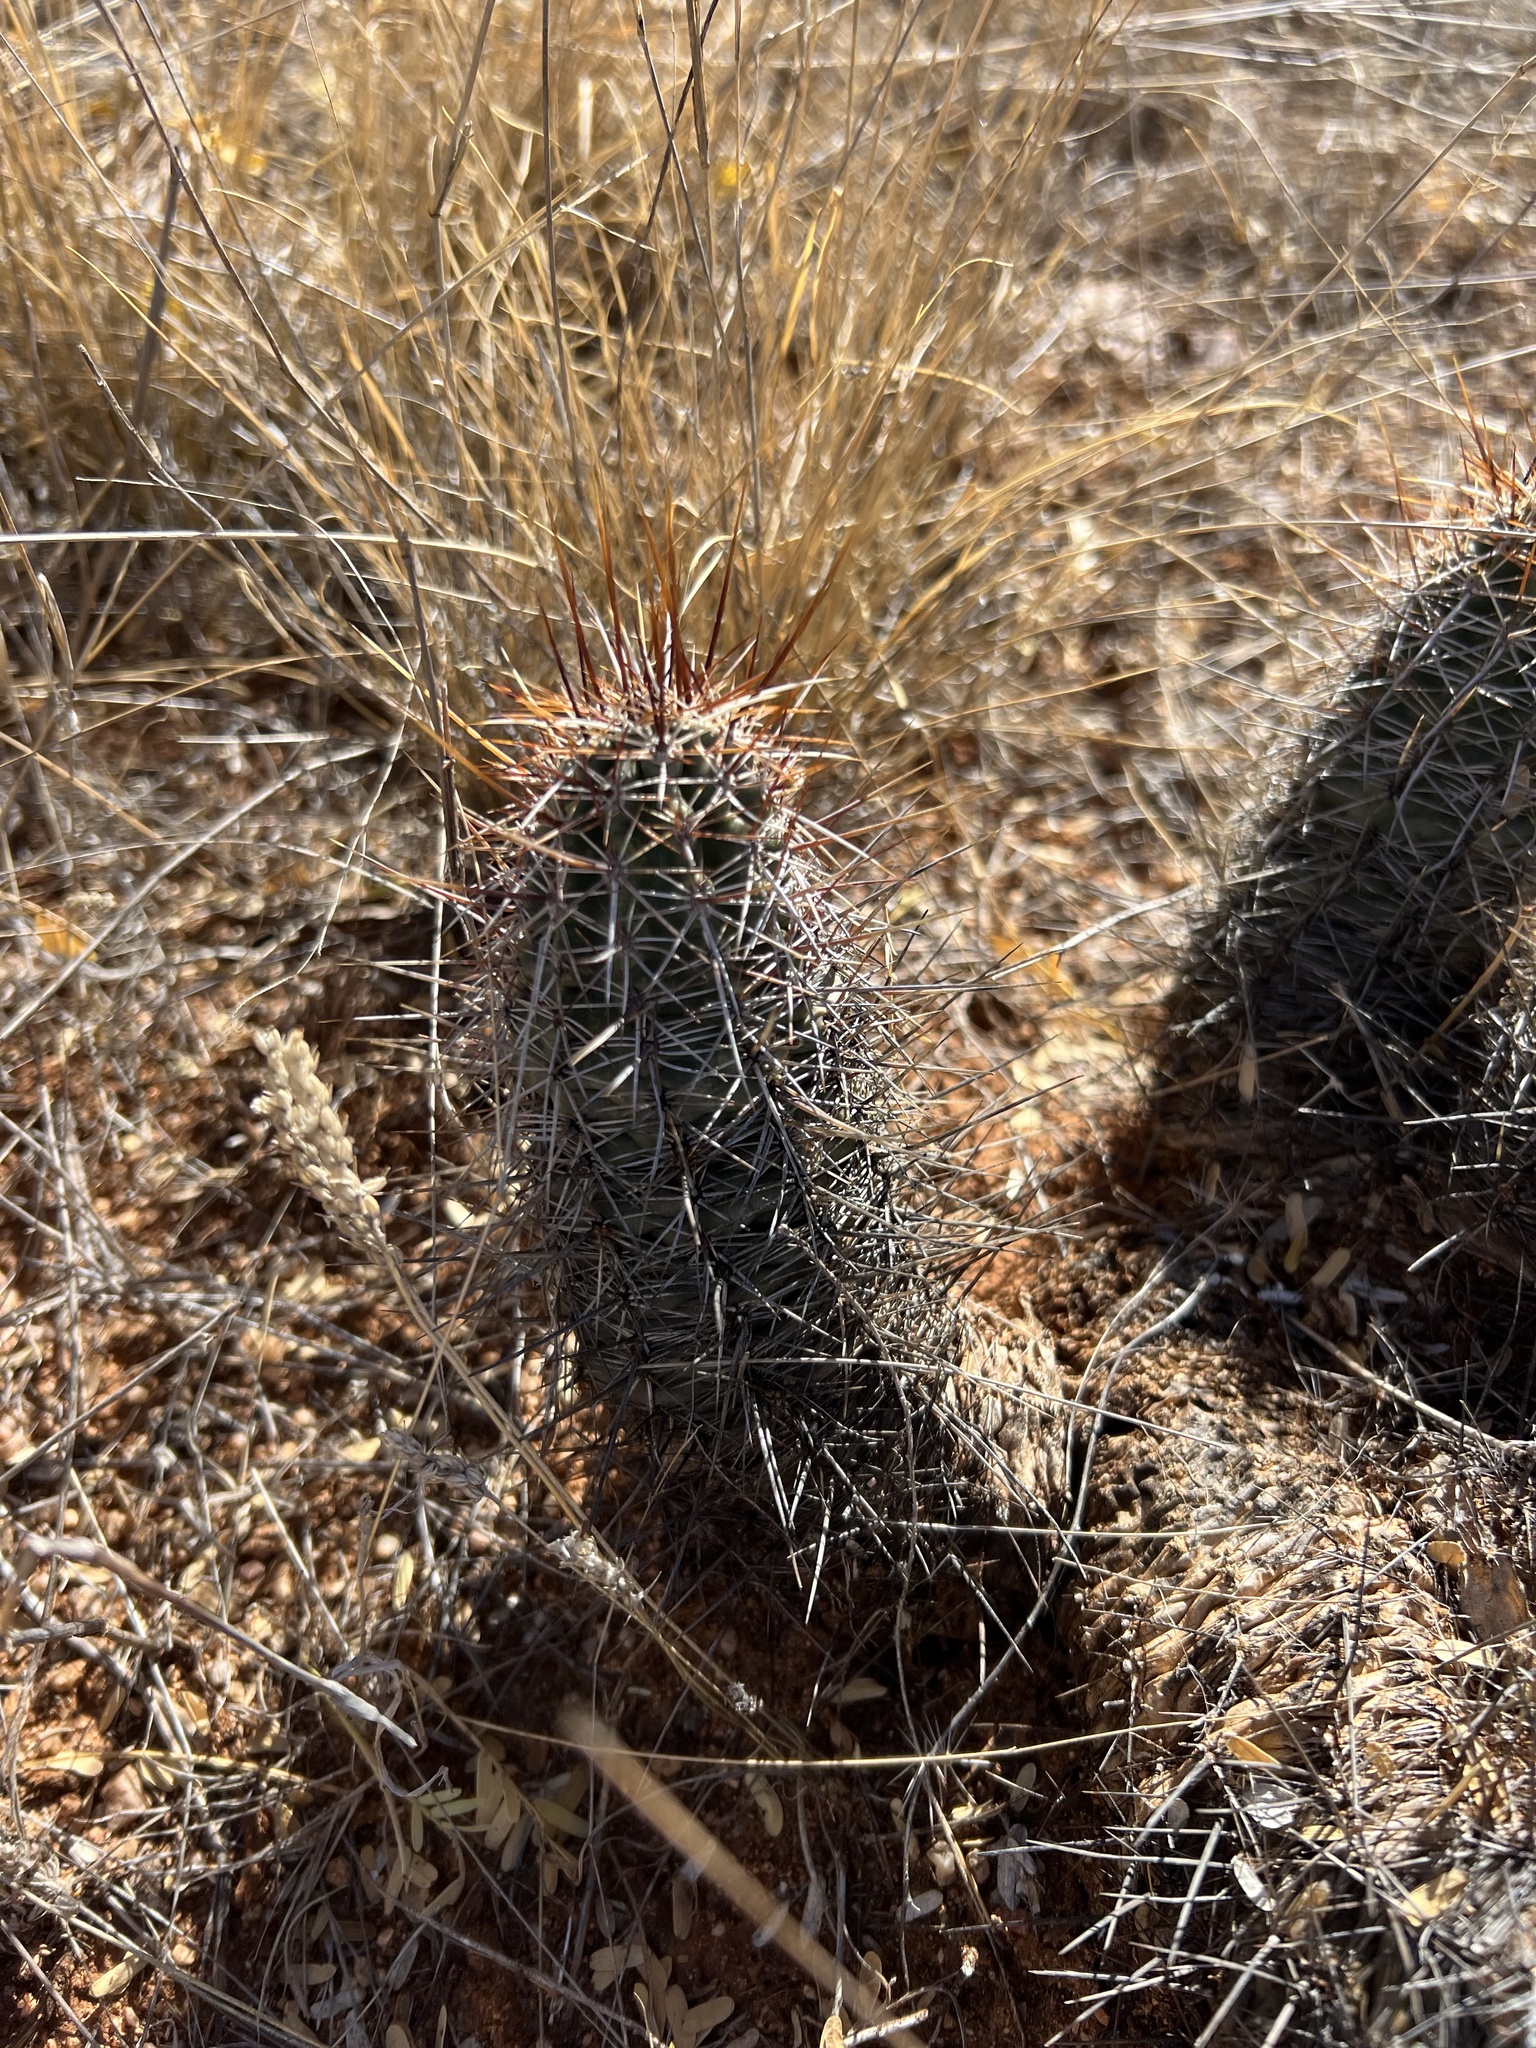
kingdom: Plantae
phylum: Tracheophyta
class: Magnoliopsida
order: Caryophyllales
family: Cactaceae
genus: Echinocereus
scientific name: Echinocereus fasciculatus
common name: Bundle hedgehog
